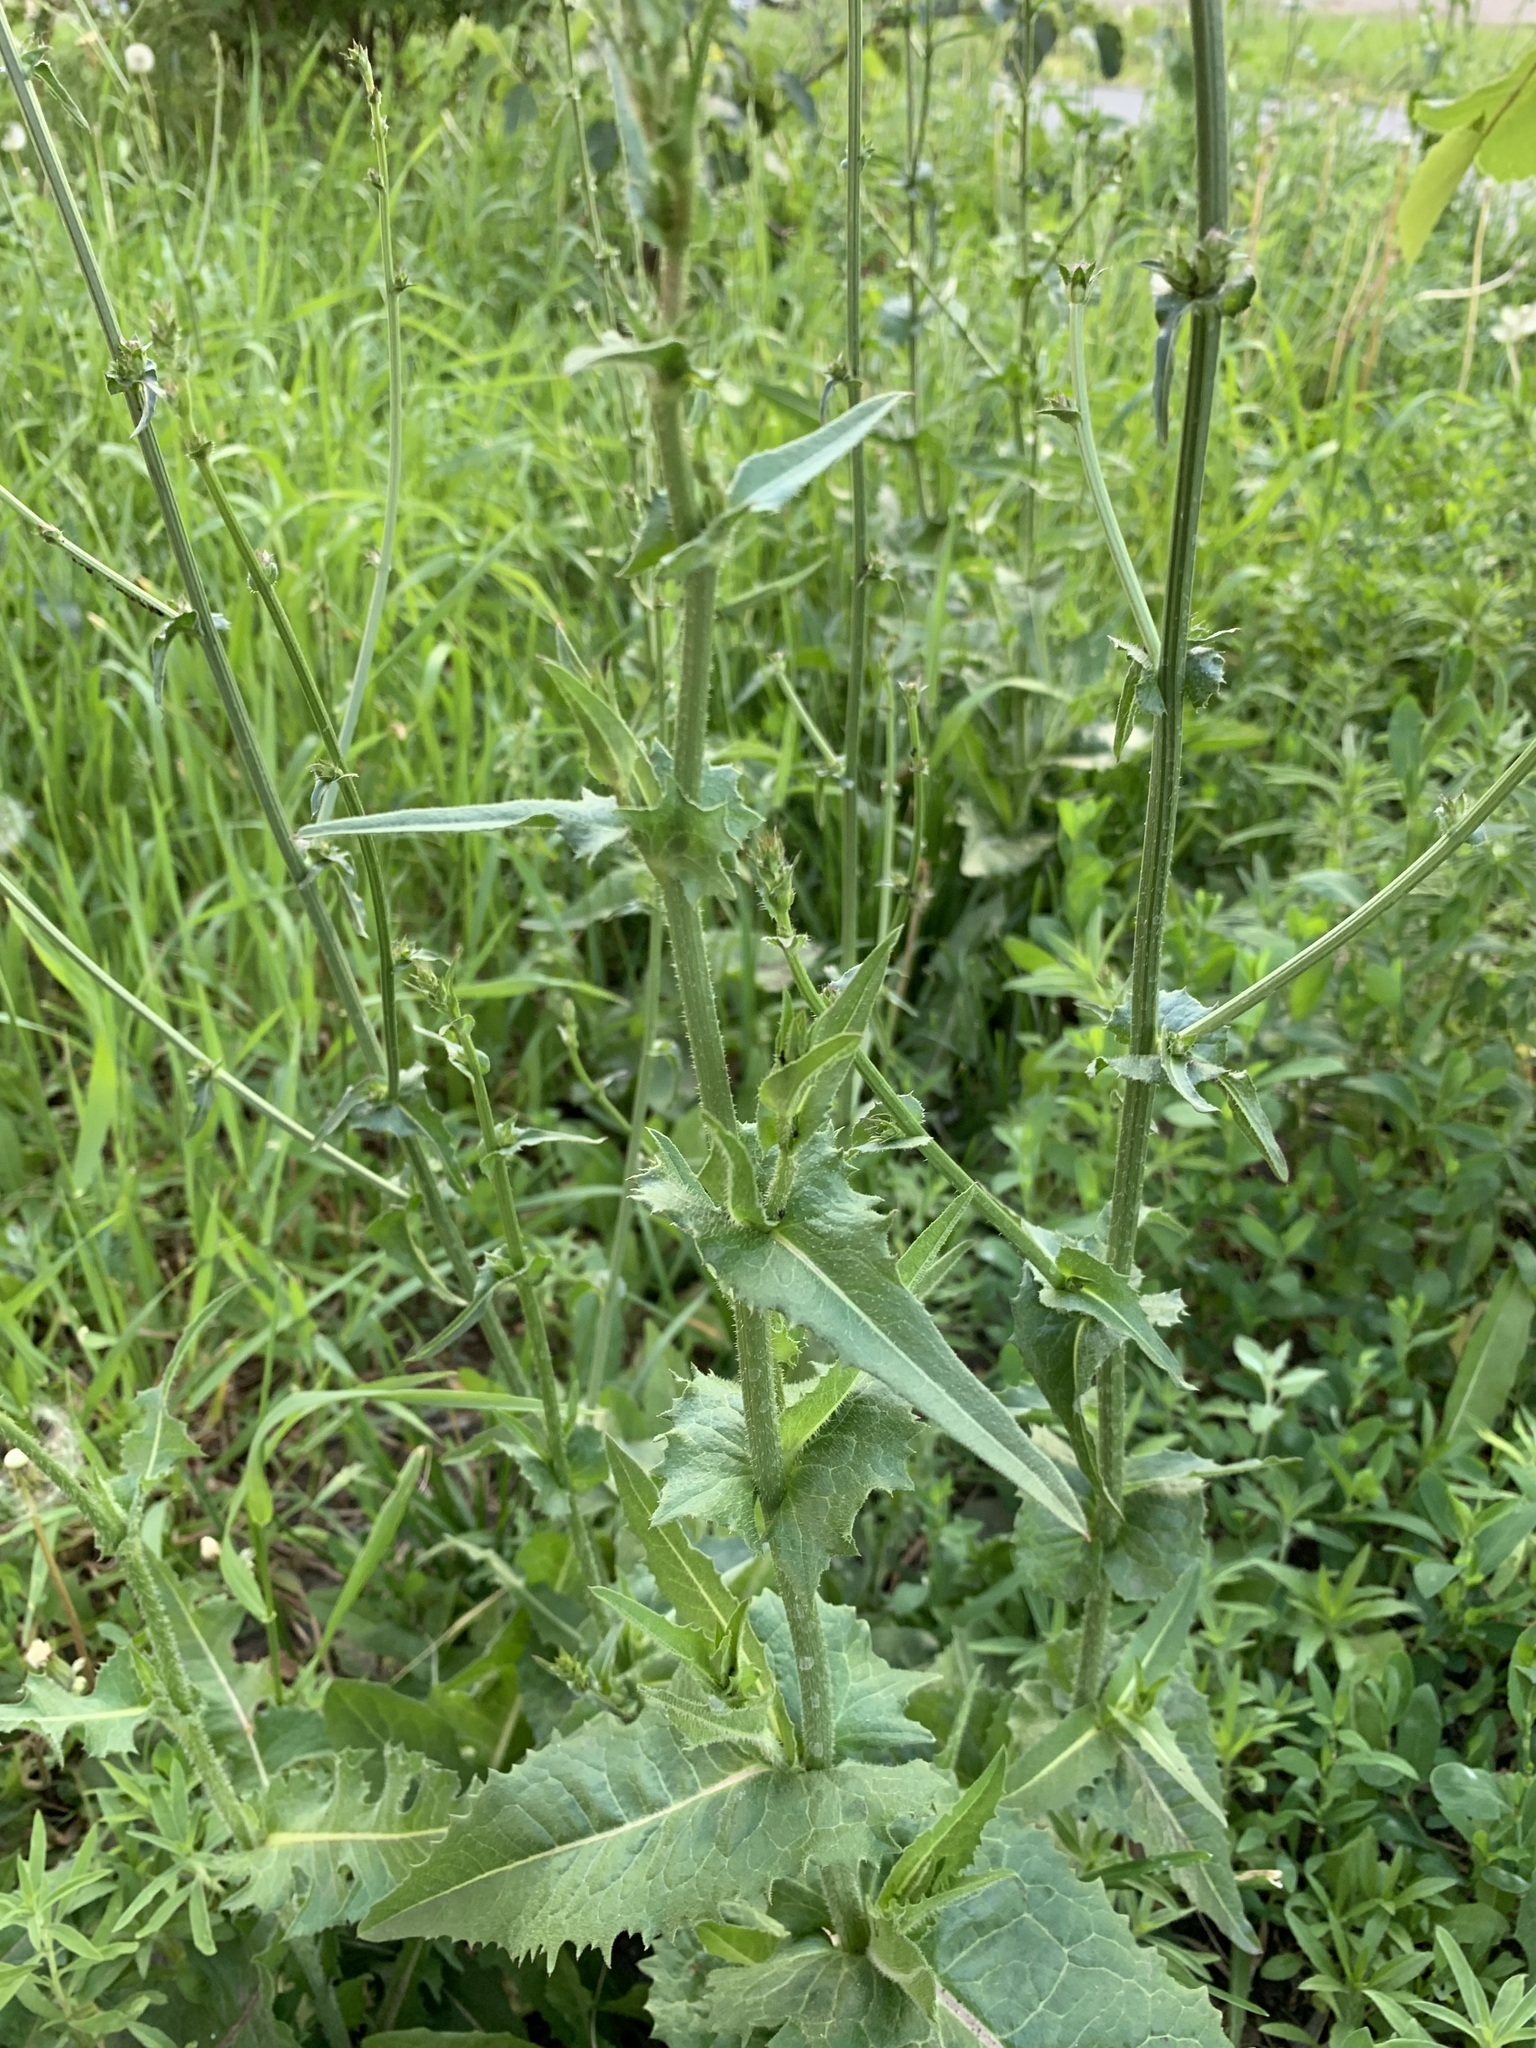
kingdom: Plantae
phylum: Tracheophyta
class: Magnoliopsida
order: Asterales
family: Asteraceae
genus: Cichorium
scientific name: Cichorium intybus
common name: Chicory
